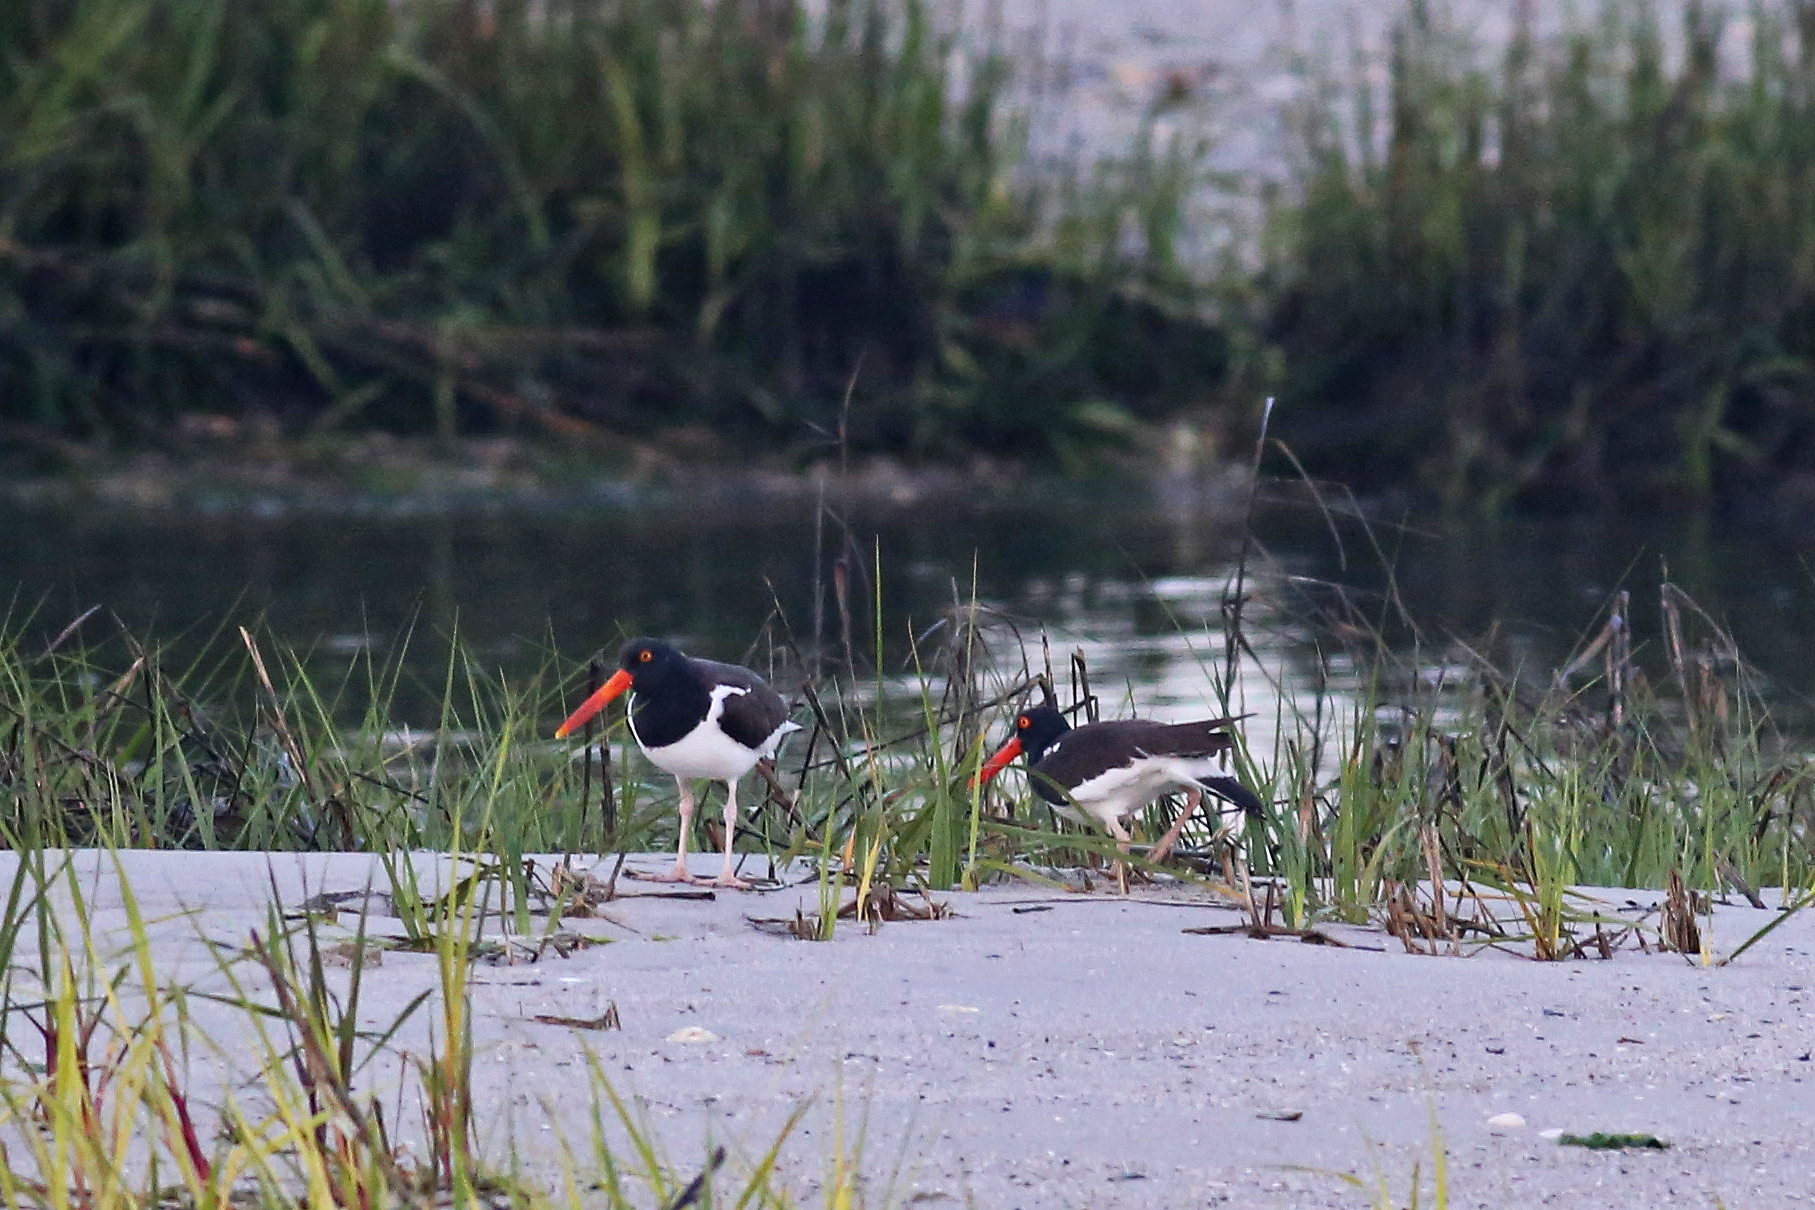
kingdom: Animalia
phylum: Chordata
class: Aves
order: Charadriiformes
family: Haematopodidae
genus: Haematopus
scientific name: Haematopus palliatus
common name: American oystercatcher
